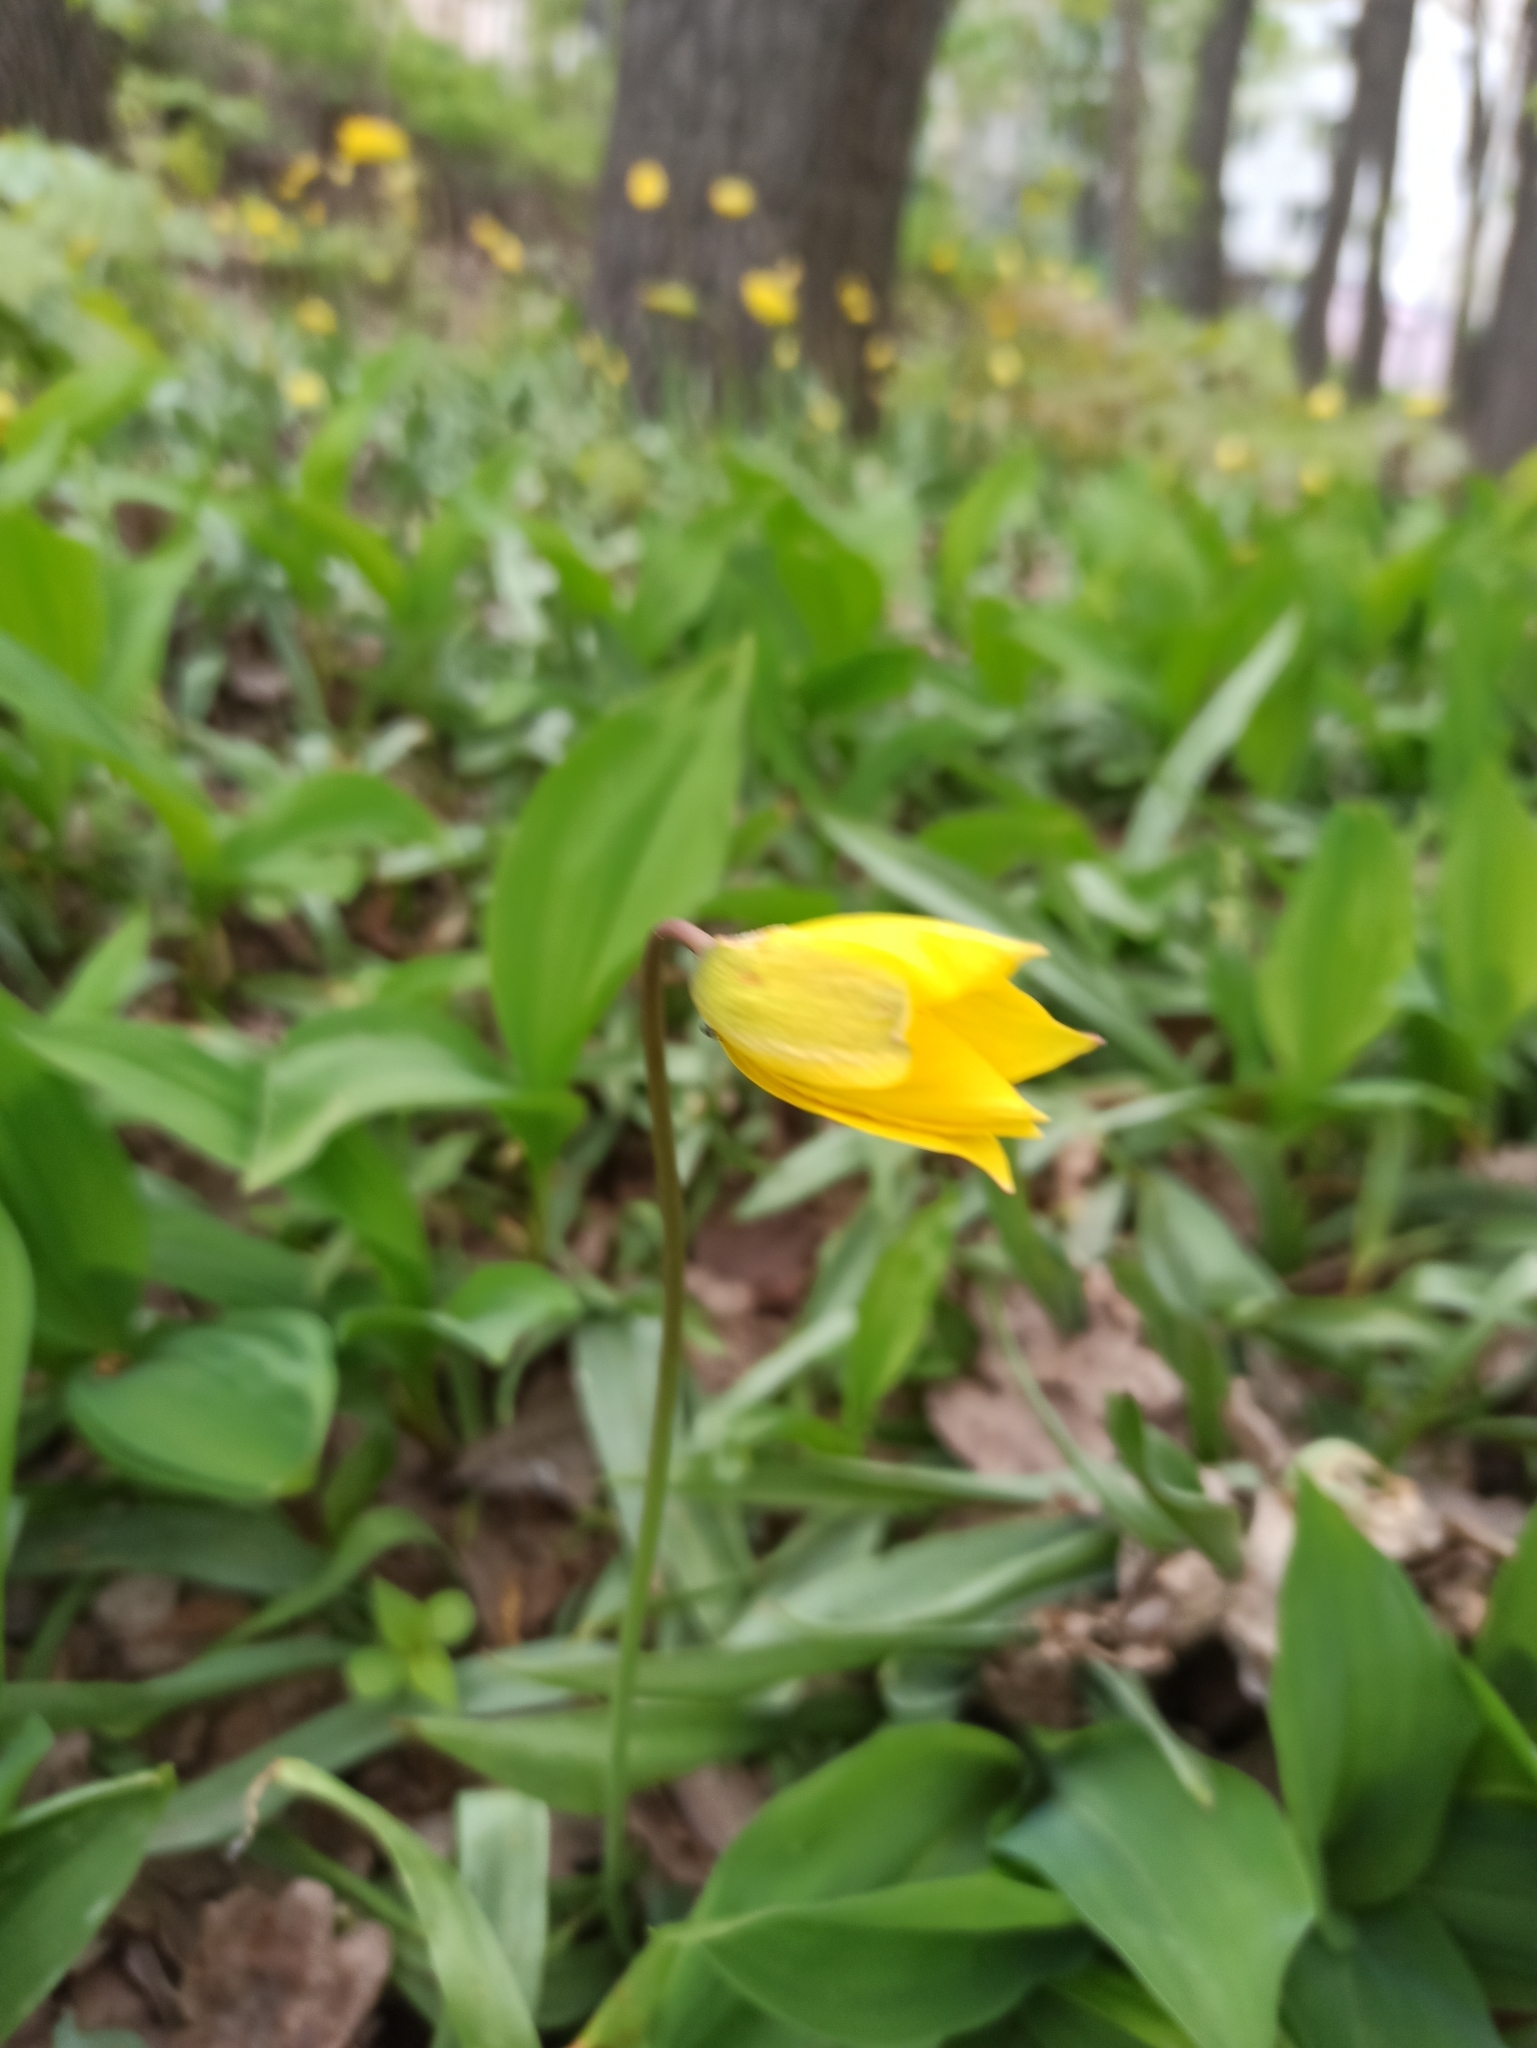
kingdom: Plantae
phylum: Tracheophyta
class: Liliopsida
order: Liliales
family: Liliaceae
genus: Tulipa
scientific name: Tulipa sylvestris
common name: Wild tulip
